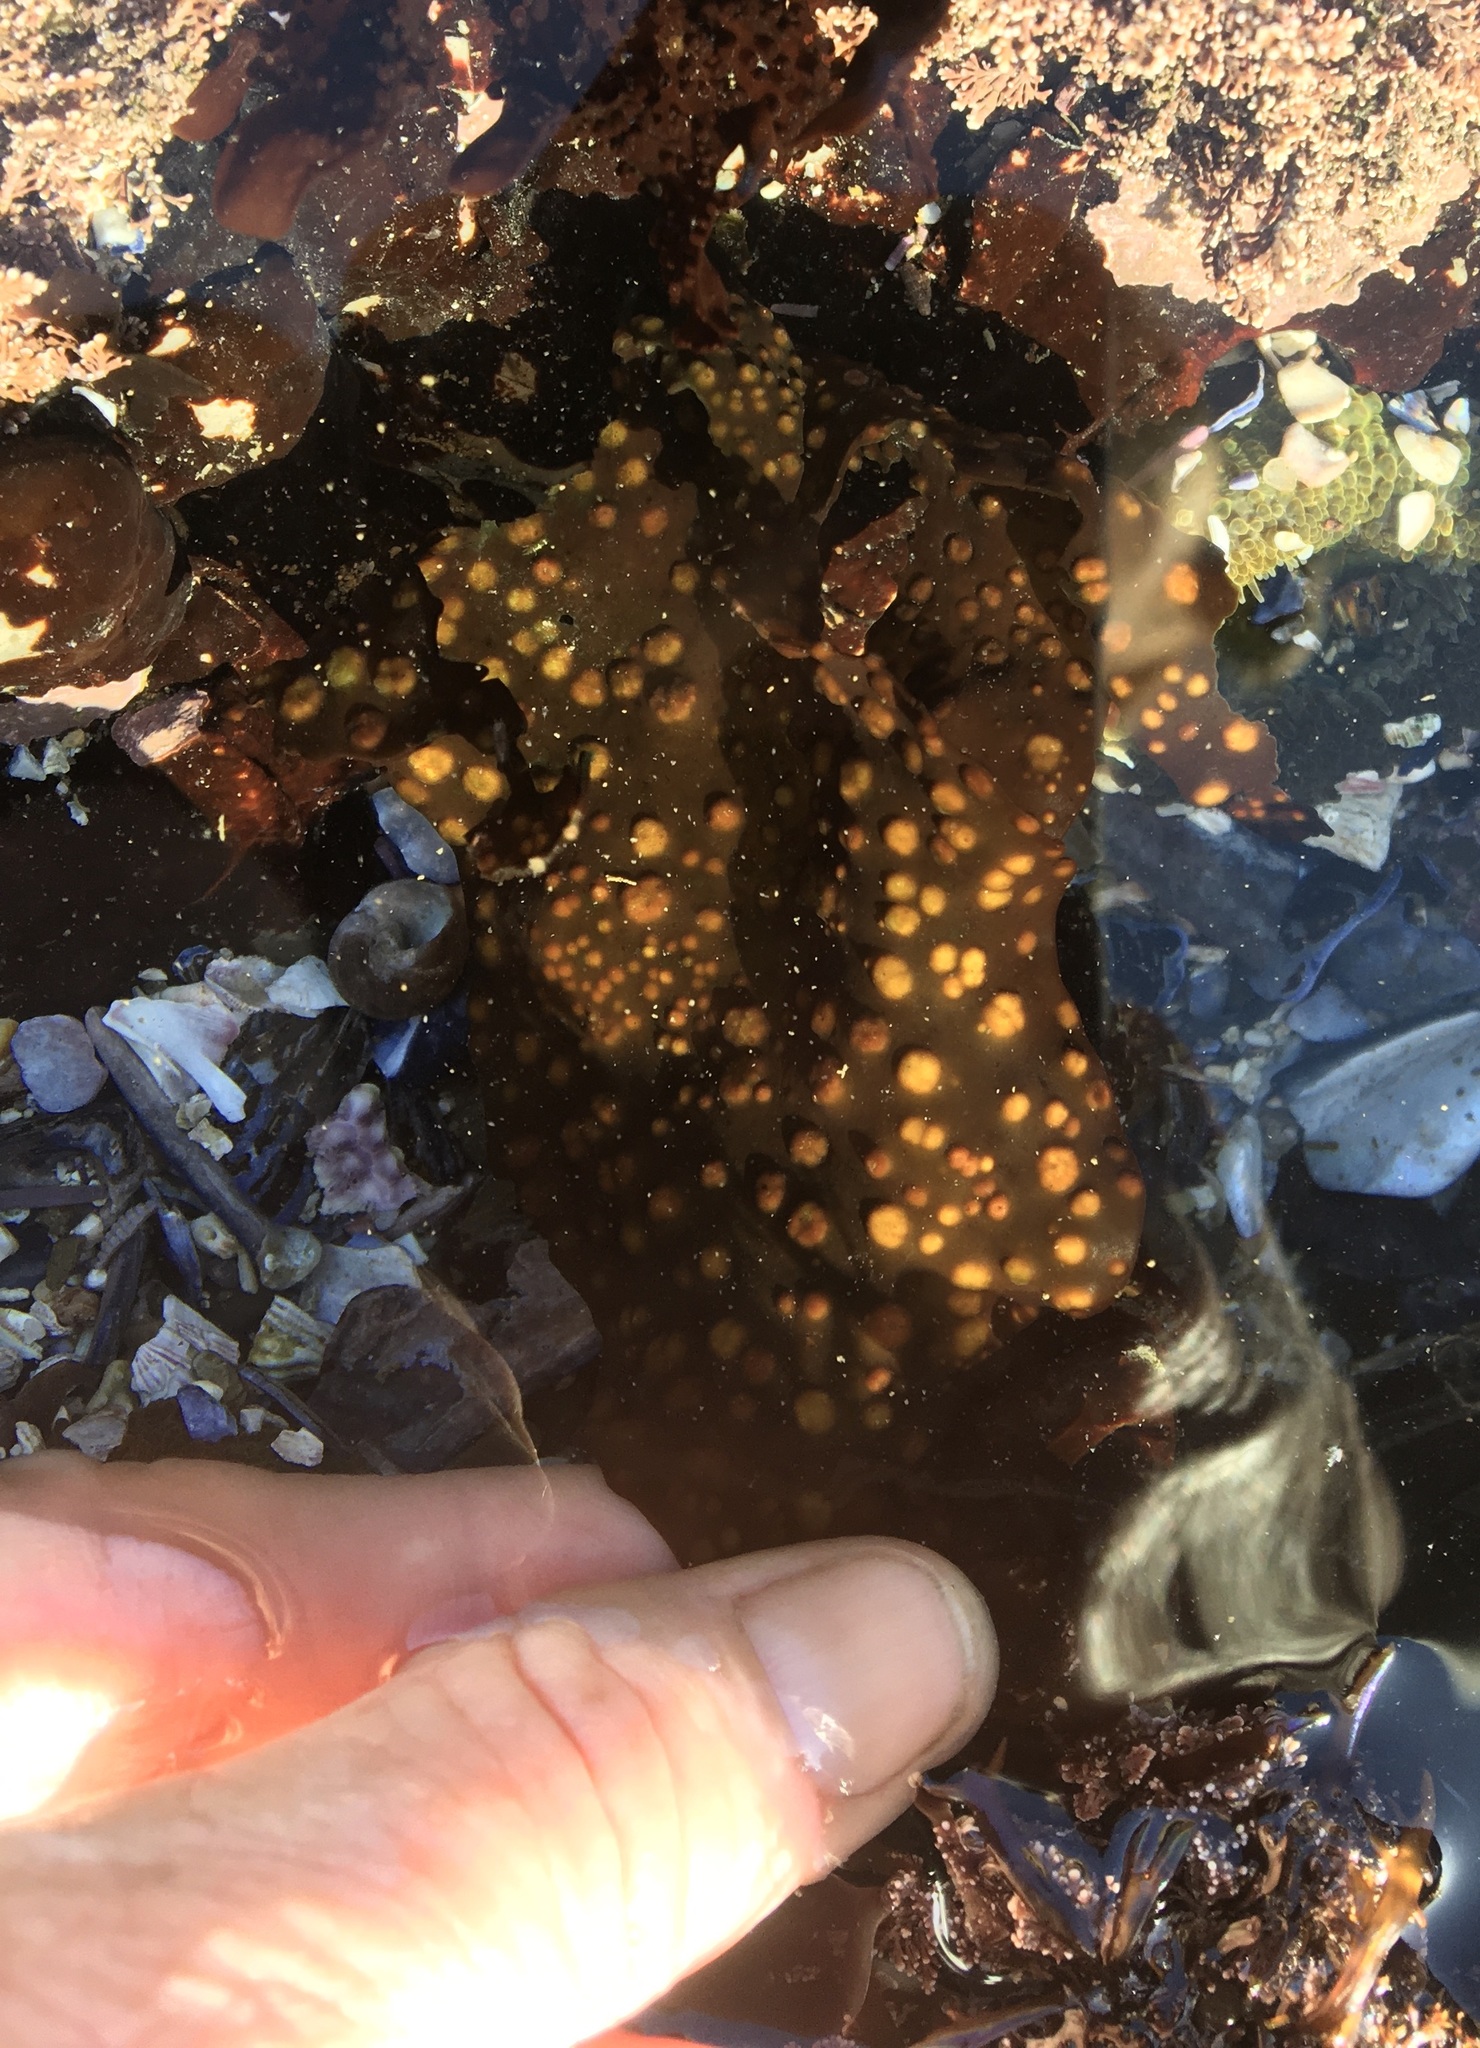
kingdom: Plantae
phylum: Rhodophyta
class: Florideophyceae
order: Gigartinales
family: Gigartinaceae
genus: Mazzaella
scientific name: Mazzaella oregona
